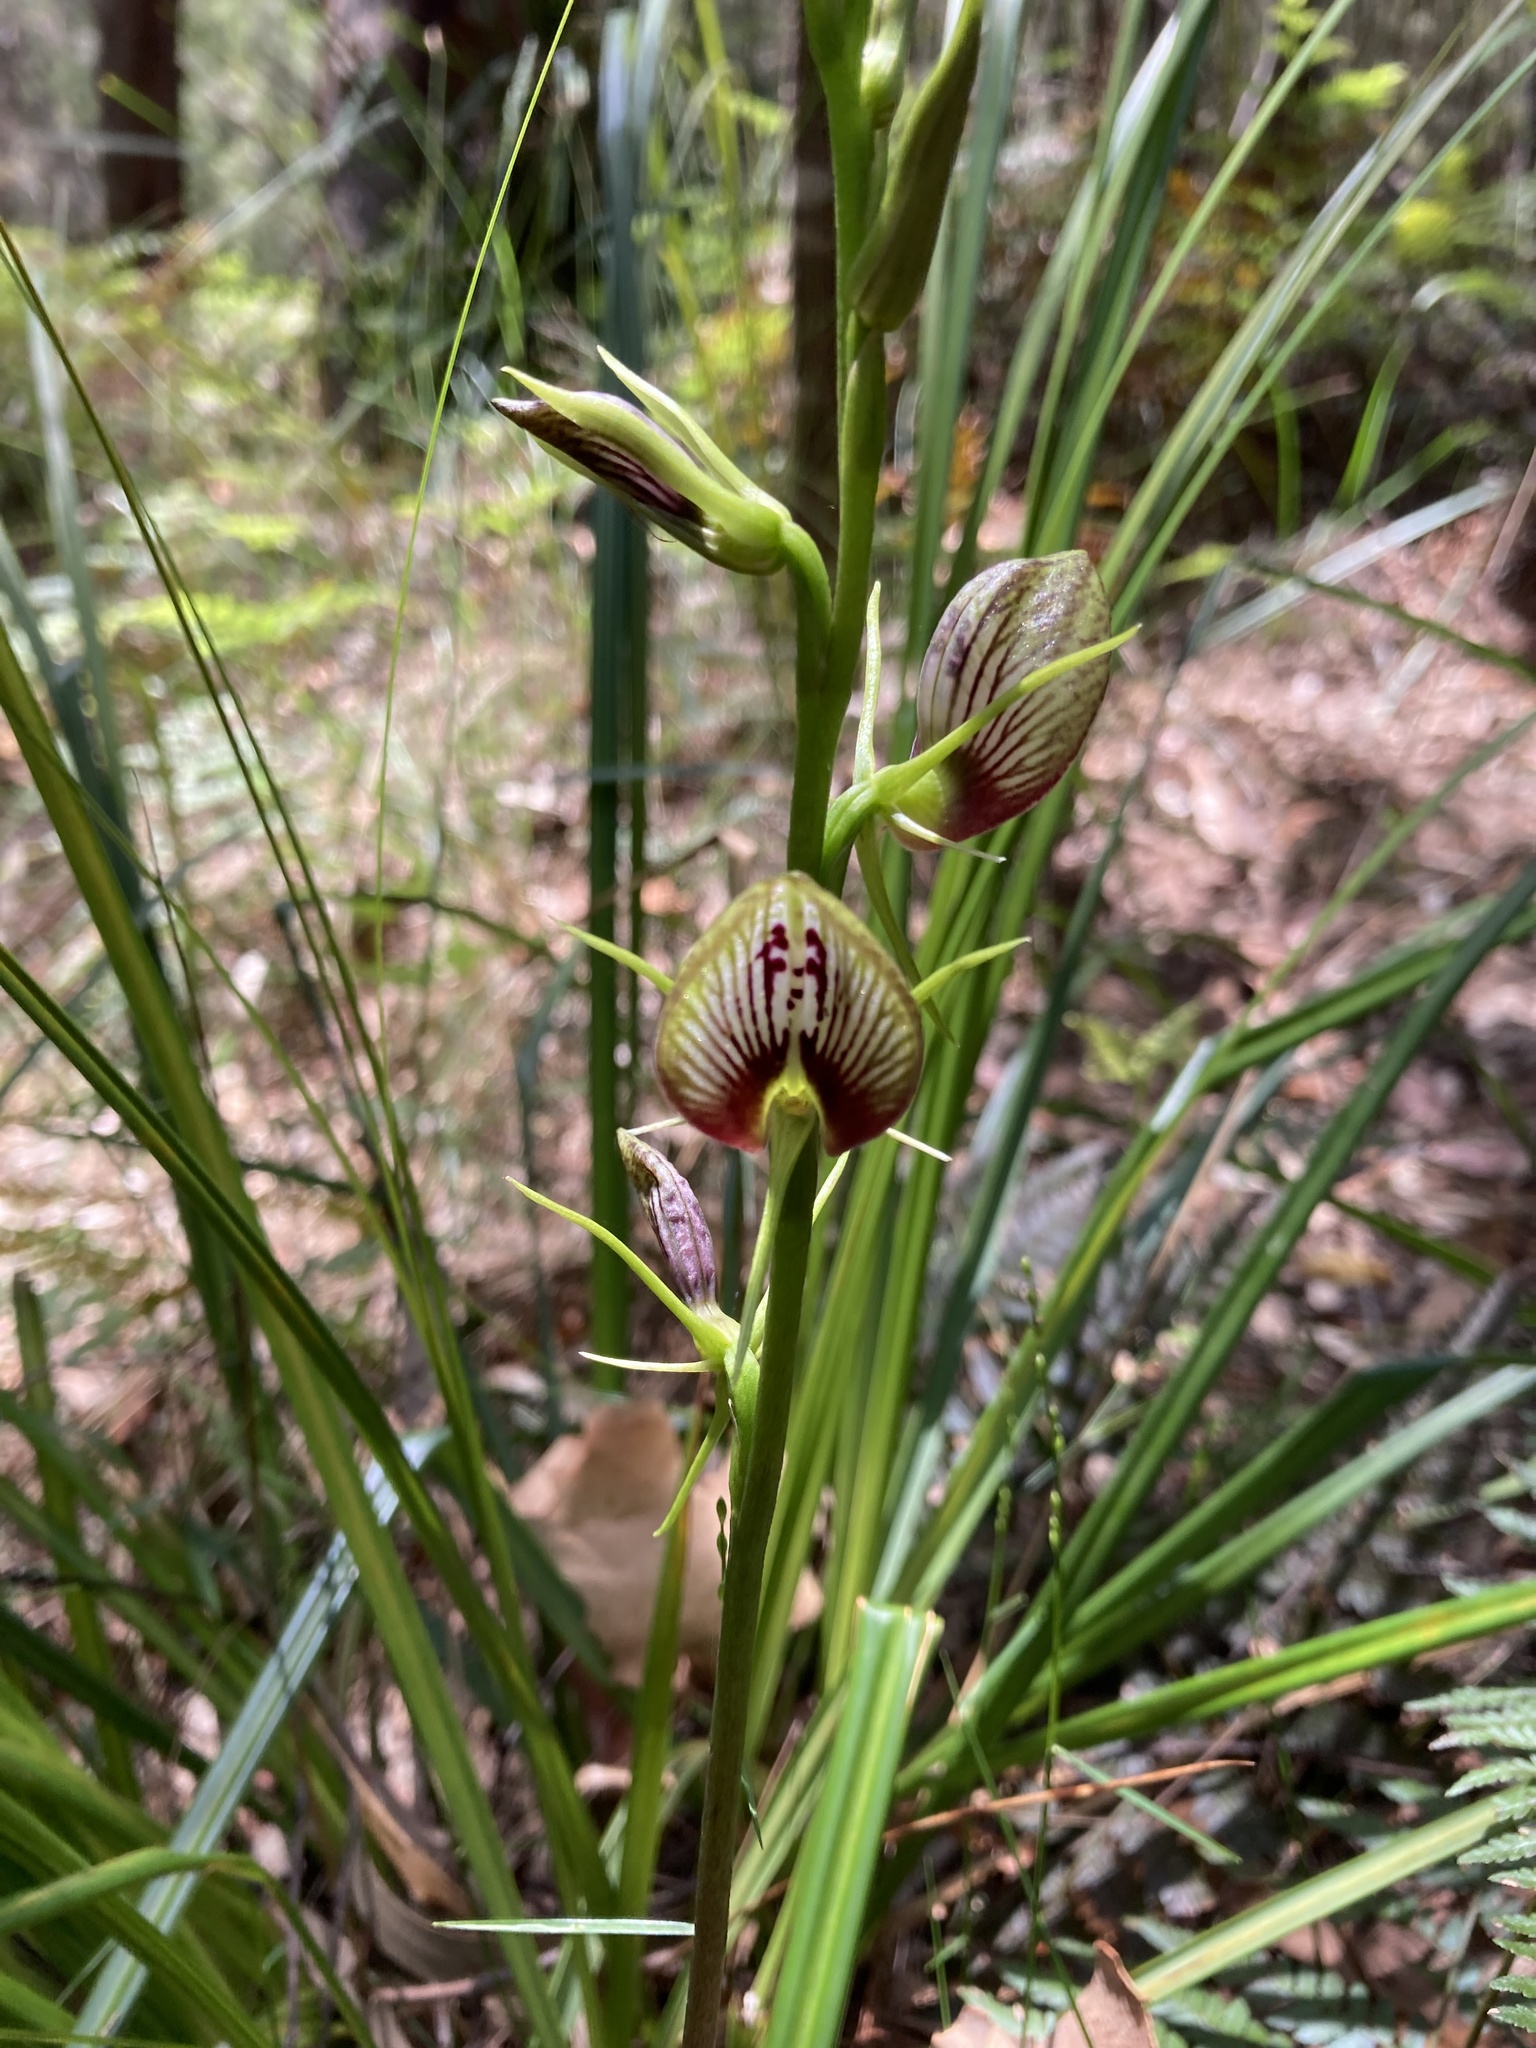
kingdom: Plantae
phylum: Tracheophyta
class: Liliopsida
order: Asparagales
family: Orchidaceae
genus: Cryptostylis
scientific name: Cryptostylis erecta
